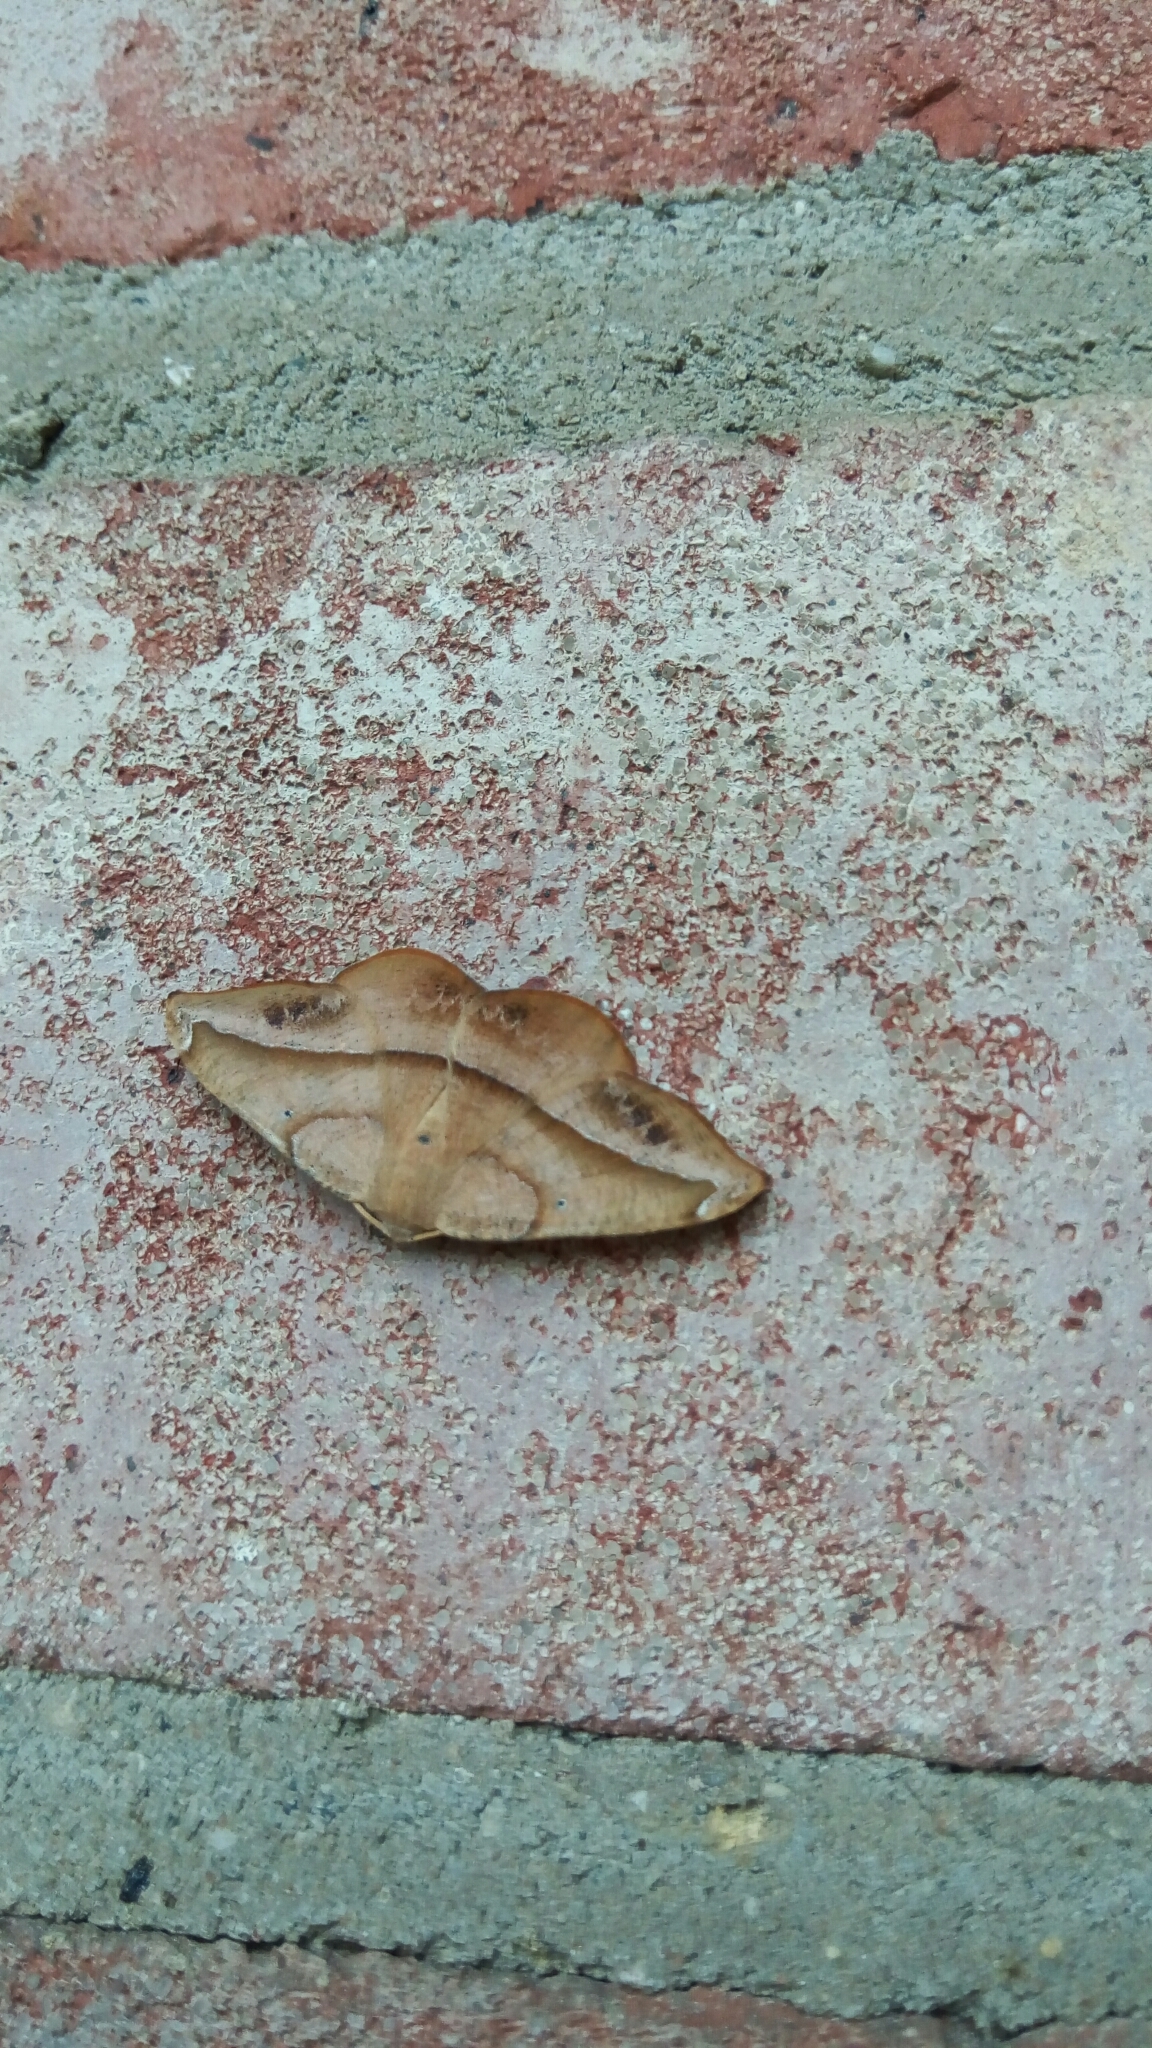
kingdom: Animalia
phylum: Arthropoda
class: Insecta
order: Lepidoptera
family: Geometridae
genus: Patalene
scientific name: Patalene olyzonaria
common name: Juniper geometer moth
